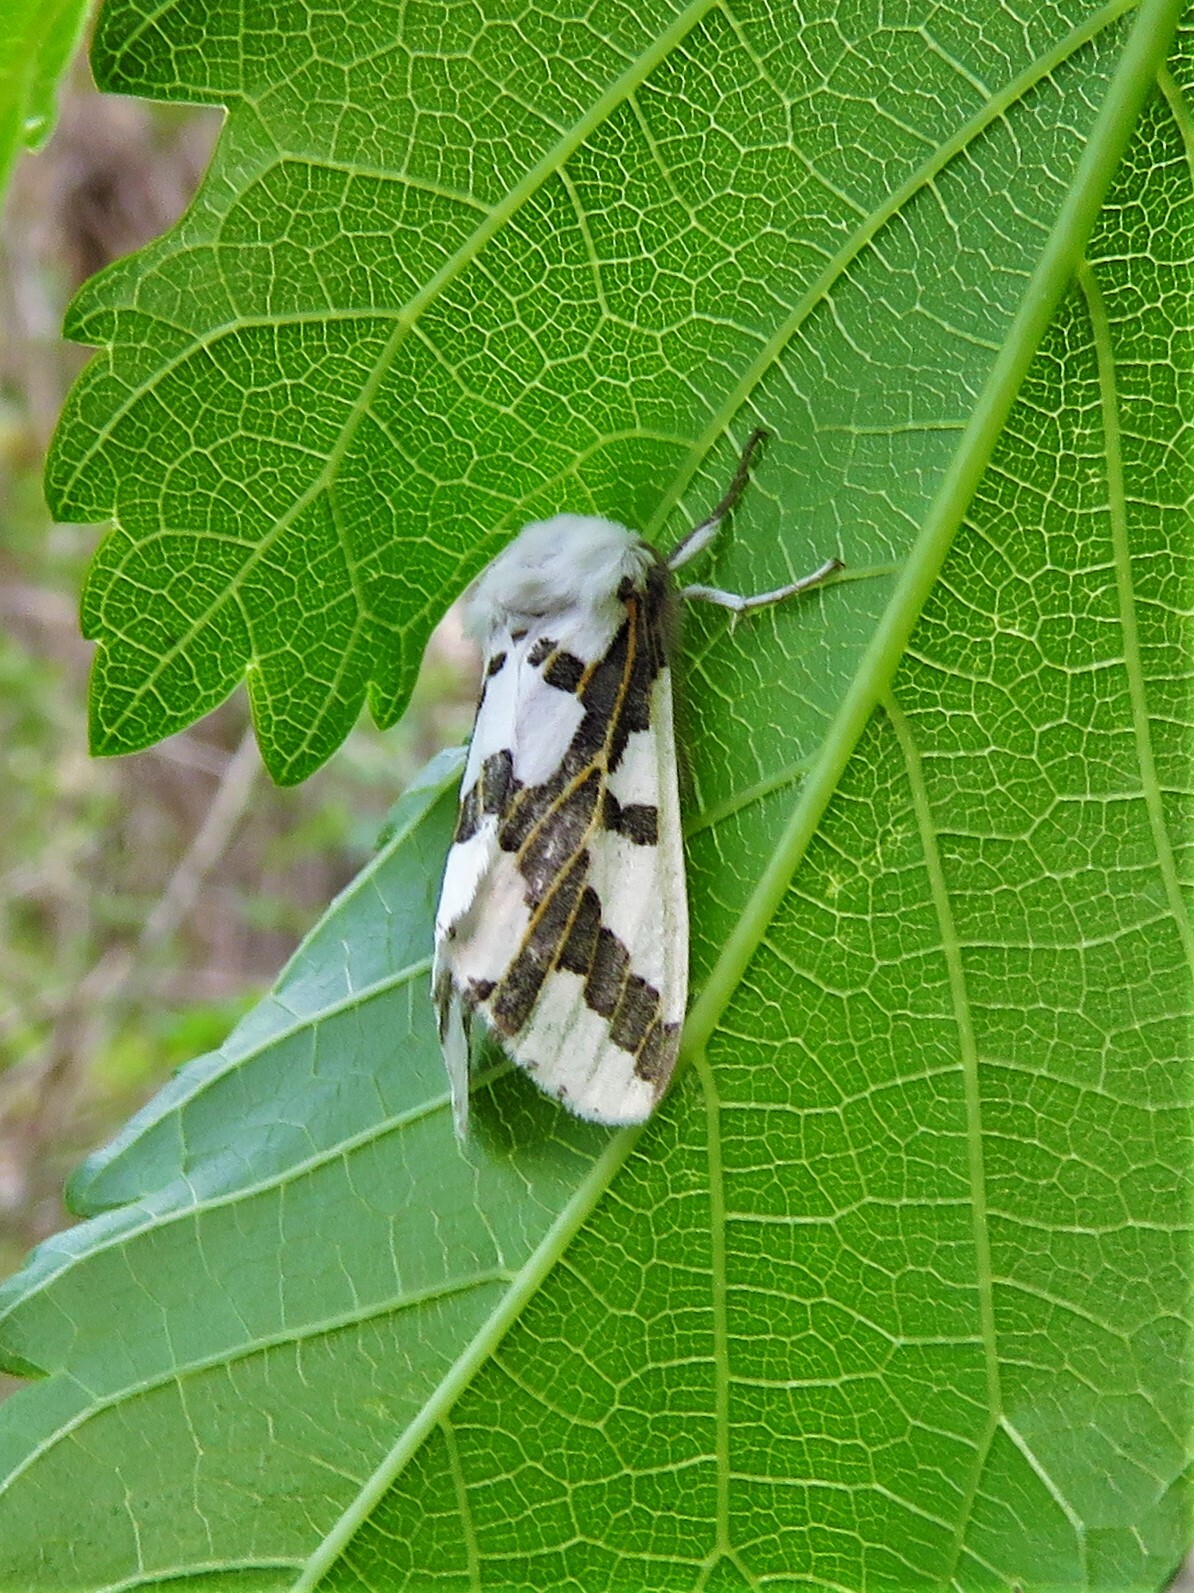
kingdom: Animalia
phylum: Arthropoda
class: Insecta
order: Lepidoptera
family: Erebidae
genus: Euerythra
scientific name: Euerythra phasma
